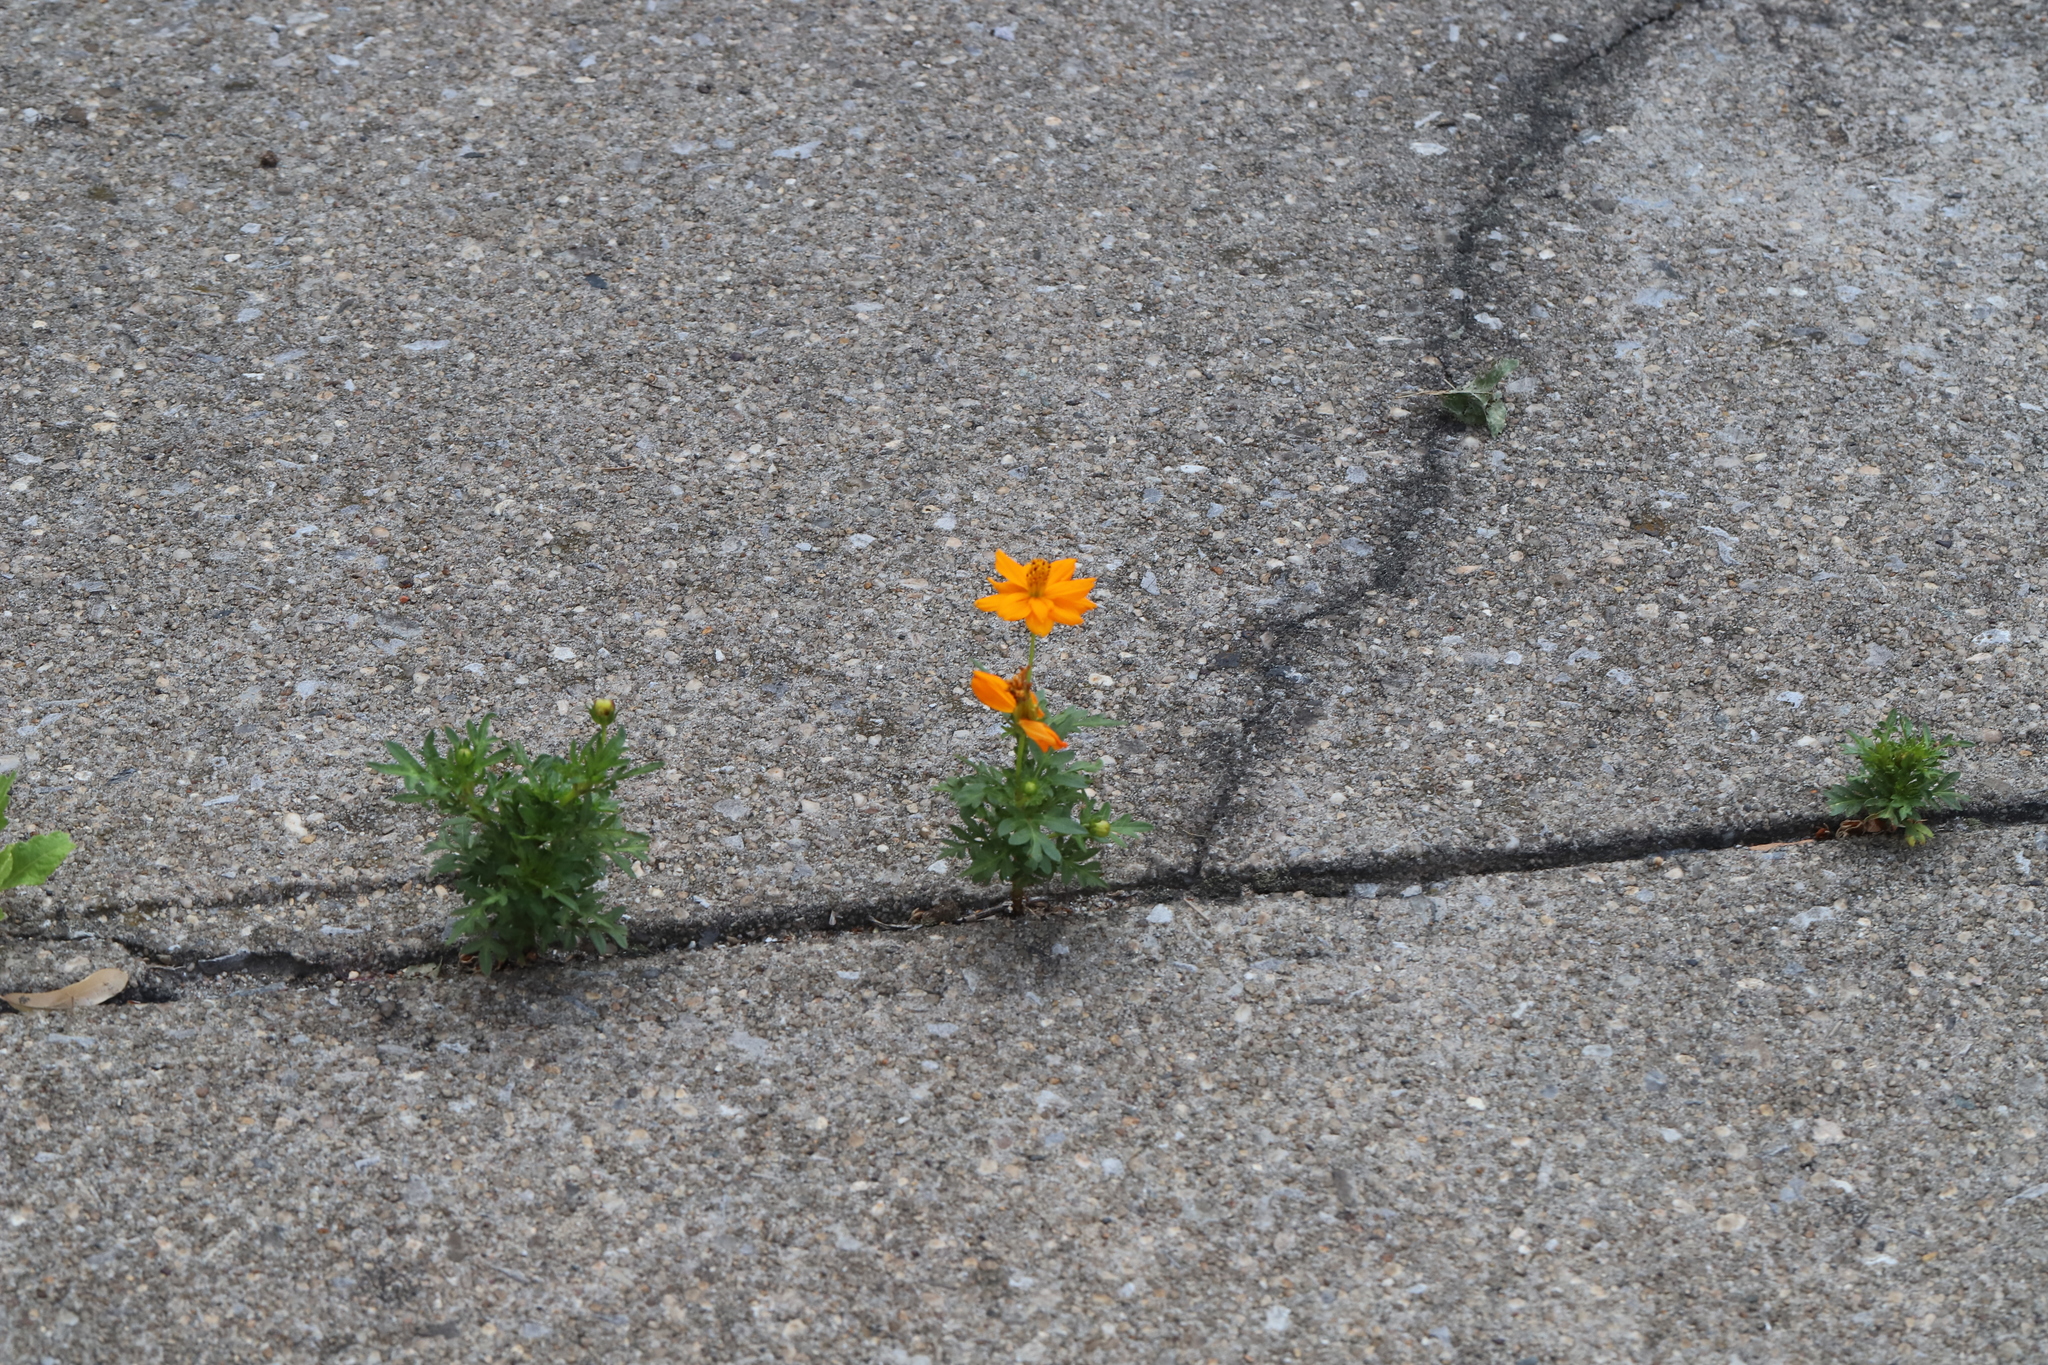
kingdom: Plantae
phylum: Tracheophyta
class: Magnoliopsida
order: Asterales
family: Asteraceae
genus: Cosmos
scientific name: Cosmos sulphureus
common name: Sulphur cosmos
